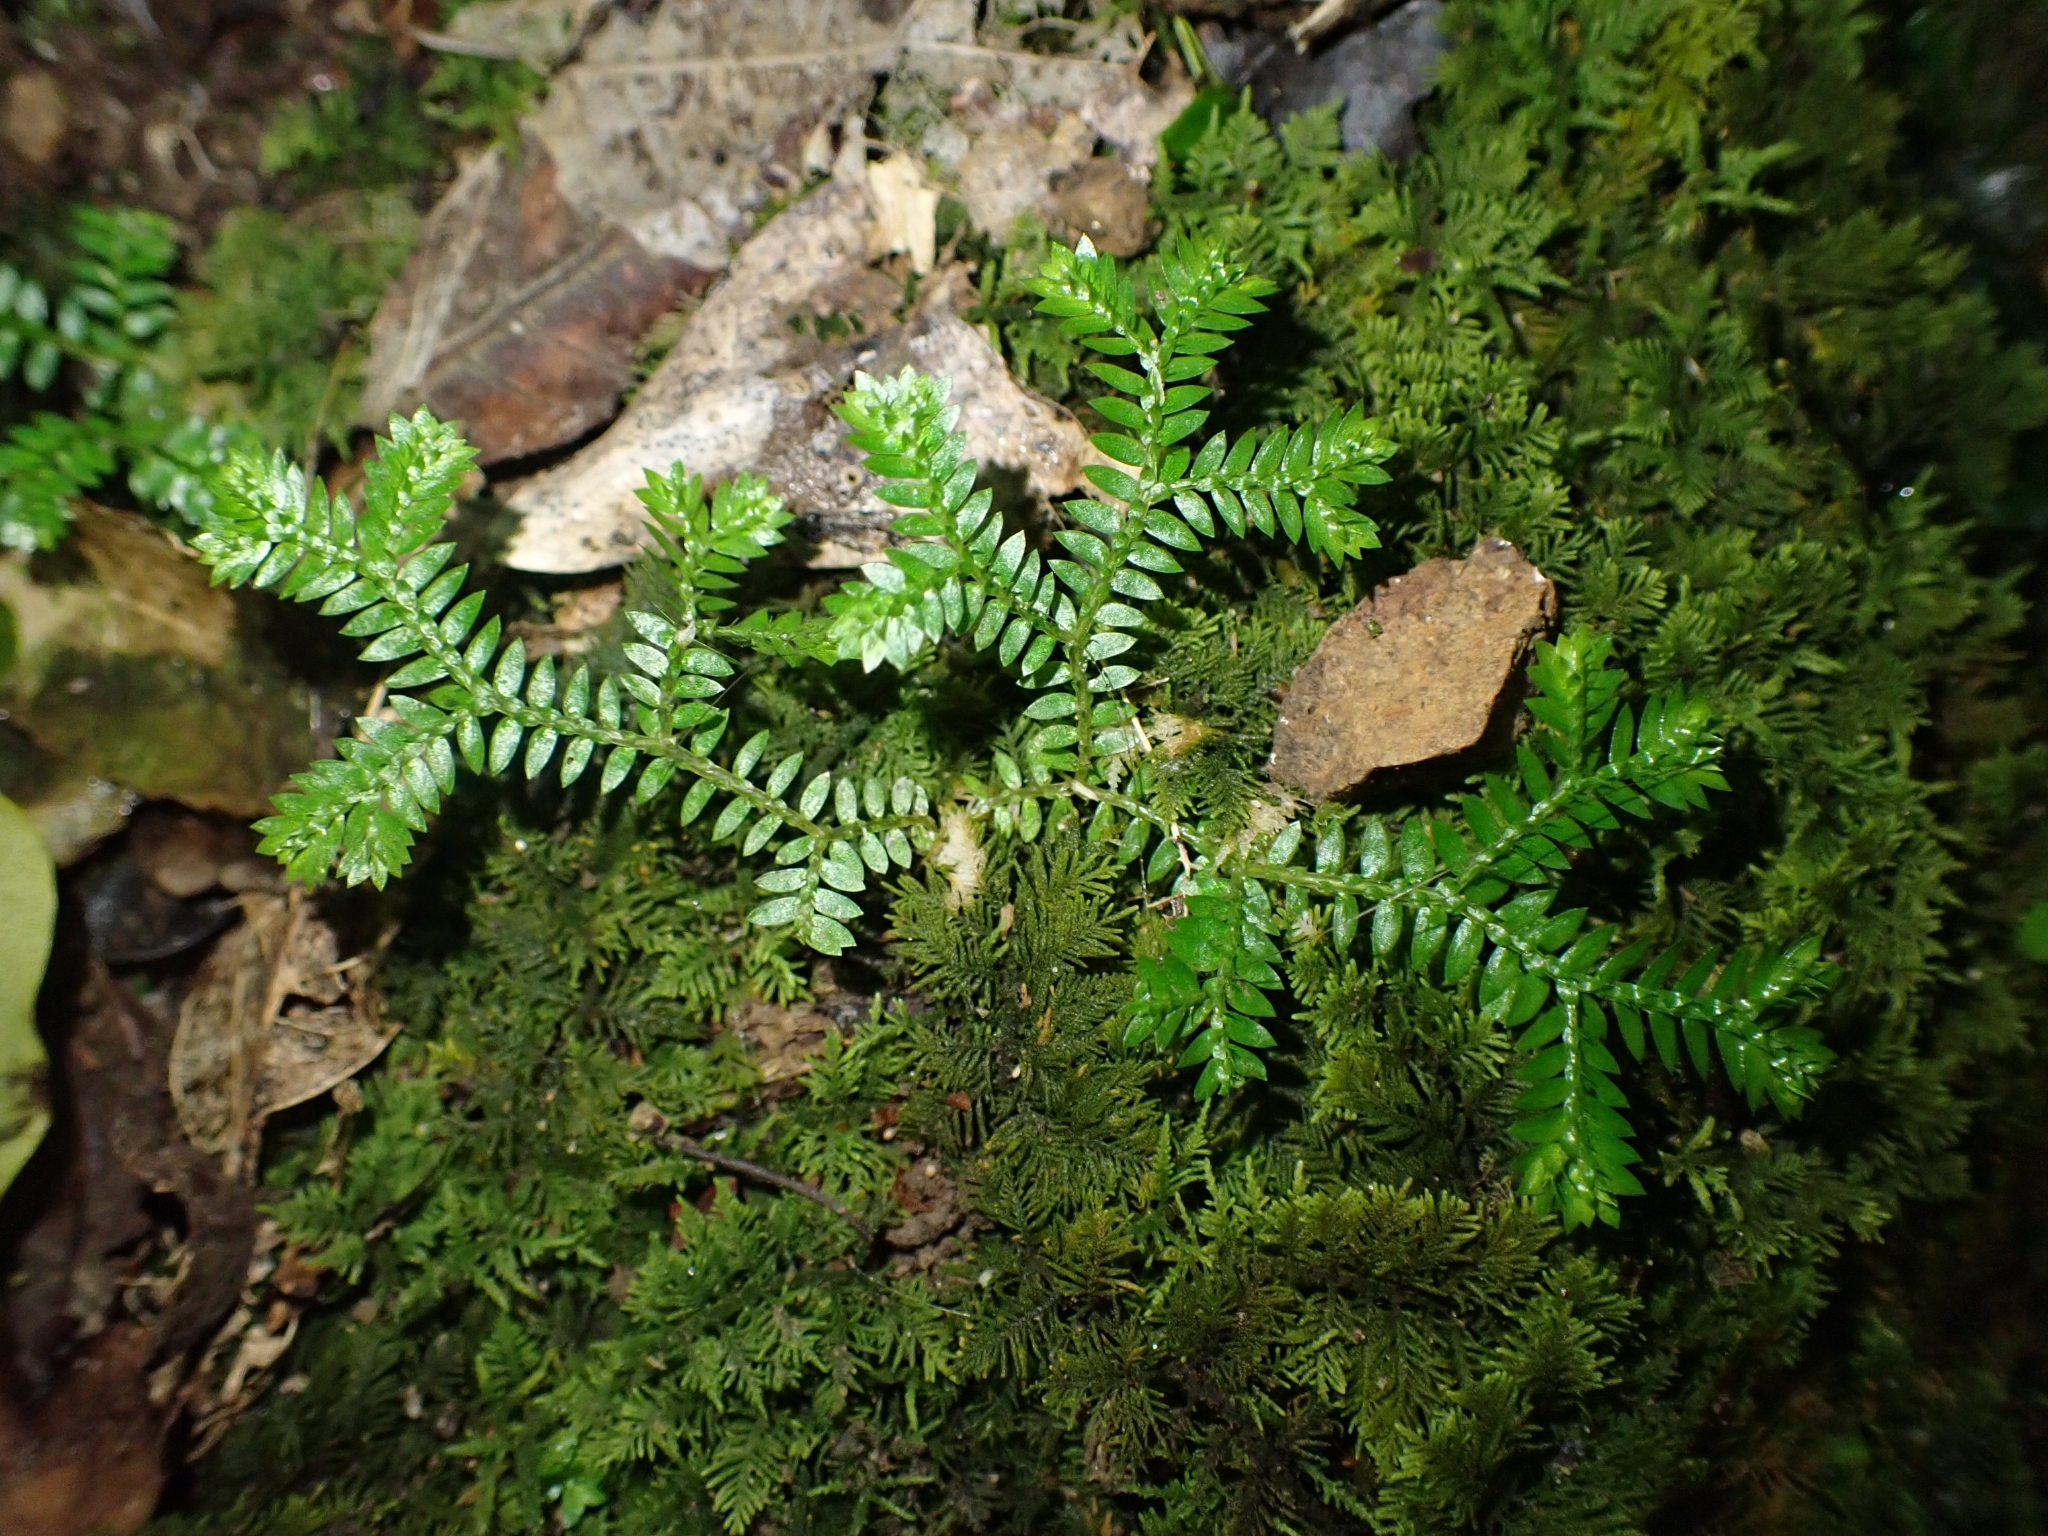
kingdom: Plantae
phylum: Tracheophyta
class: Lycopodiopsida
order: Selaginellales
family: Selaginellaceae
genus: Selaginella
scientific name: Selaginella kraussiana
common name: Krauss' spikemoss
